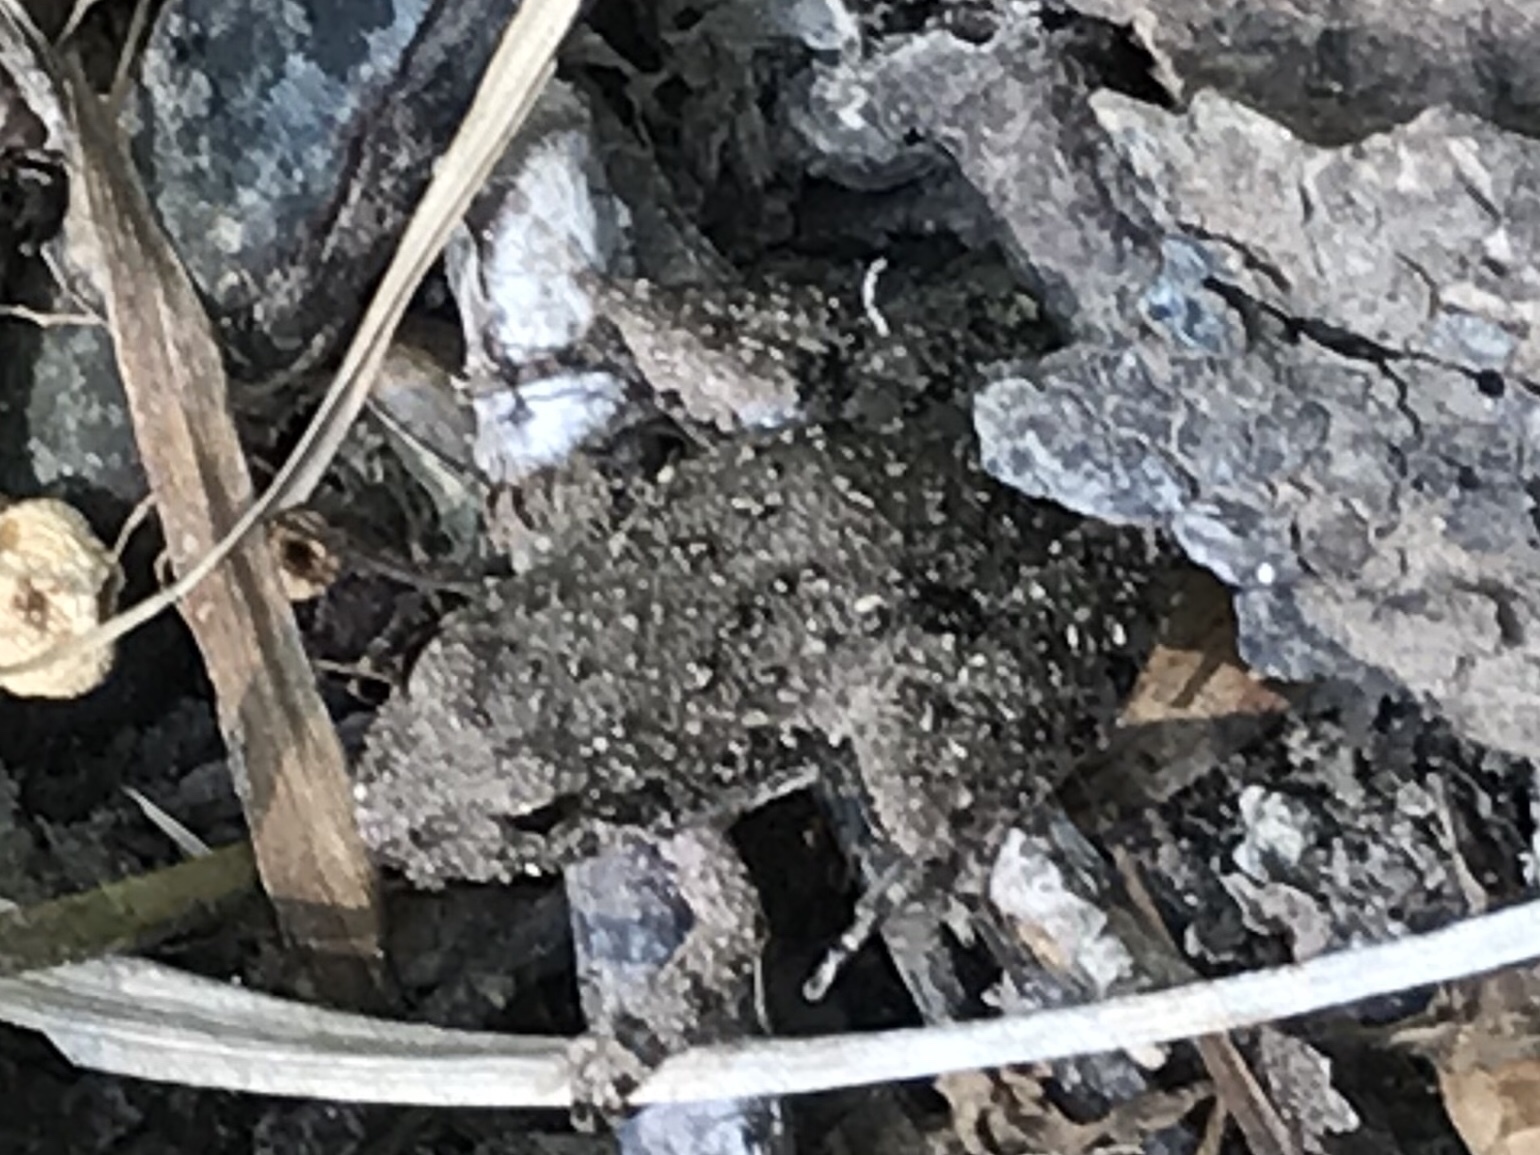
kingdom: Animalia
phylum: Chordata
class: Amphibia
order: Anura
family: Hylidae
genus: Acris
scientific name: Acris blanchardi
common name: Blanchard's cricket frog
